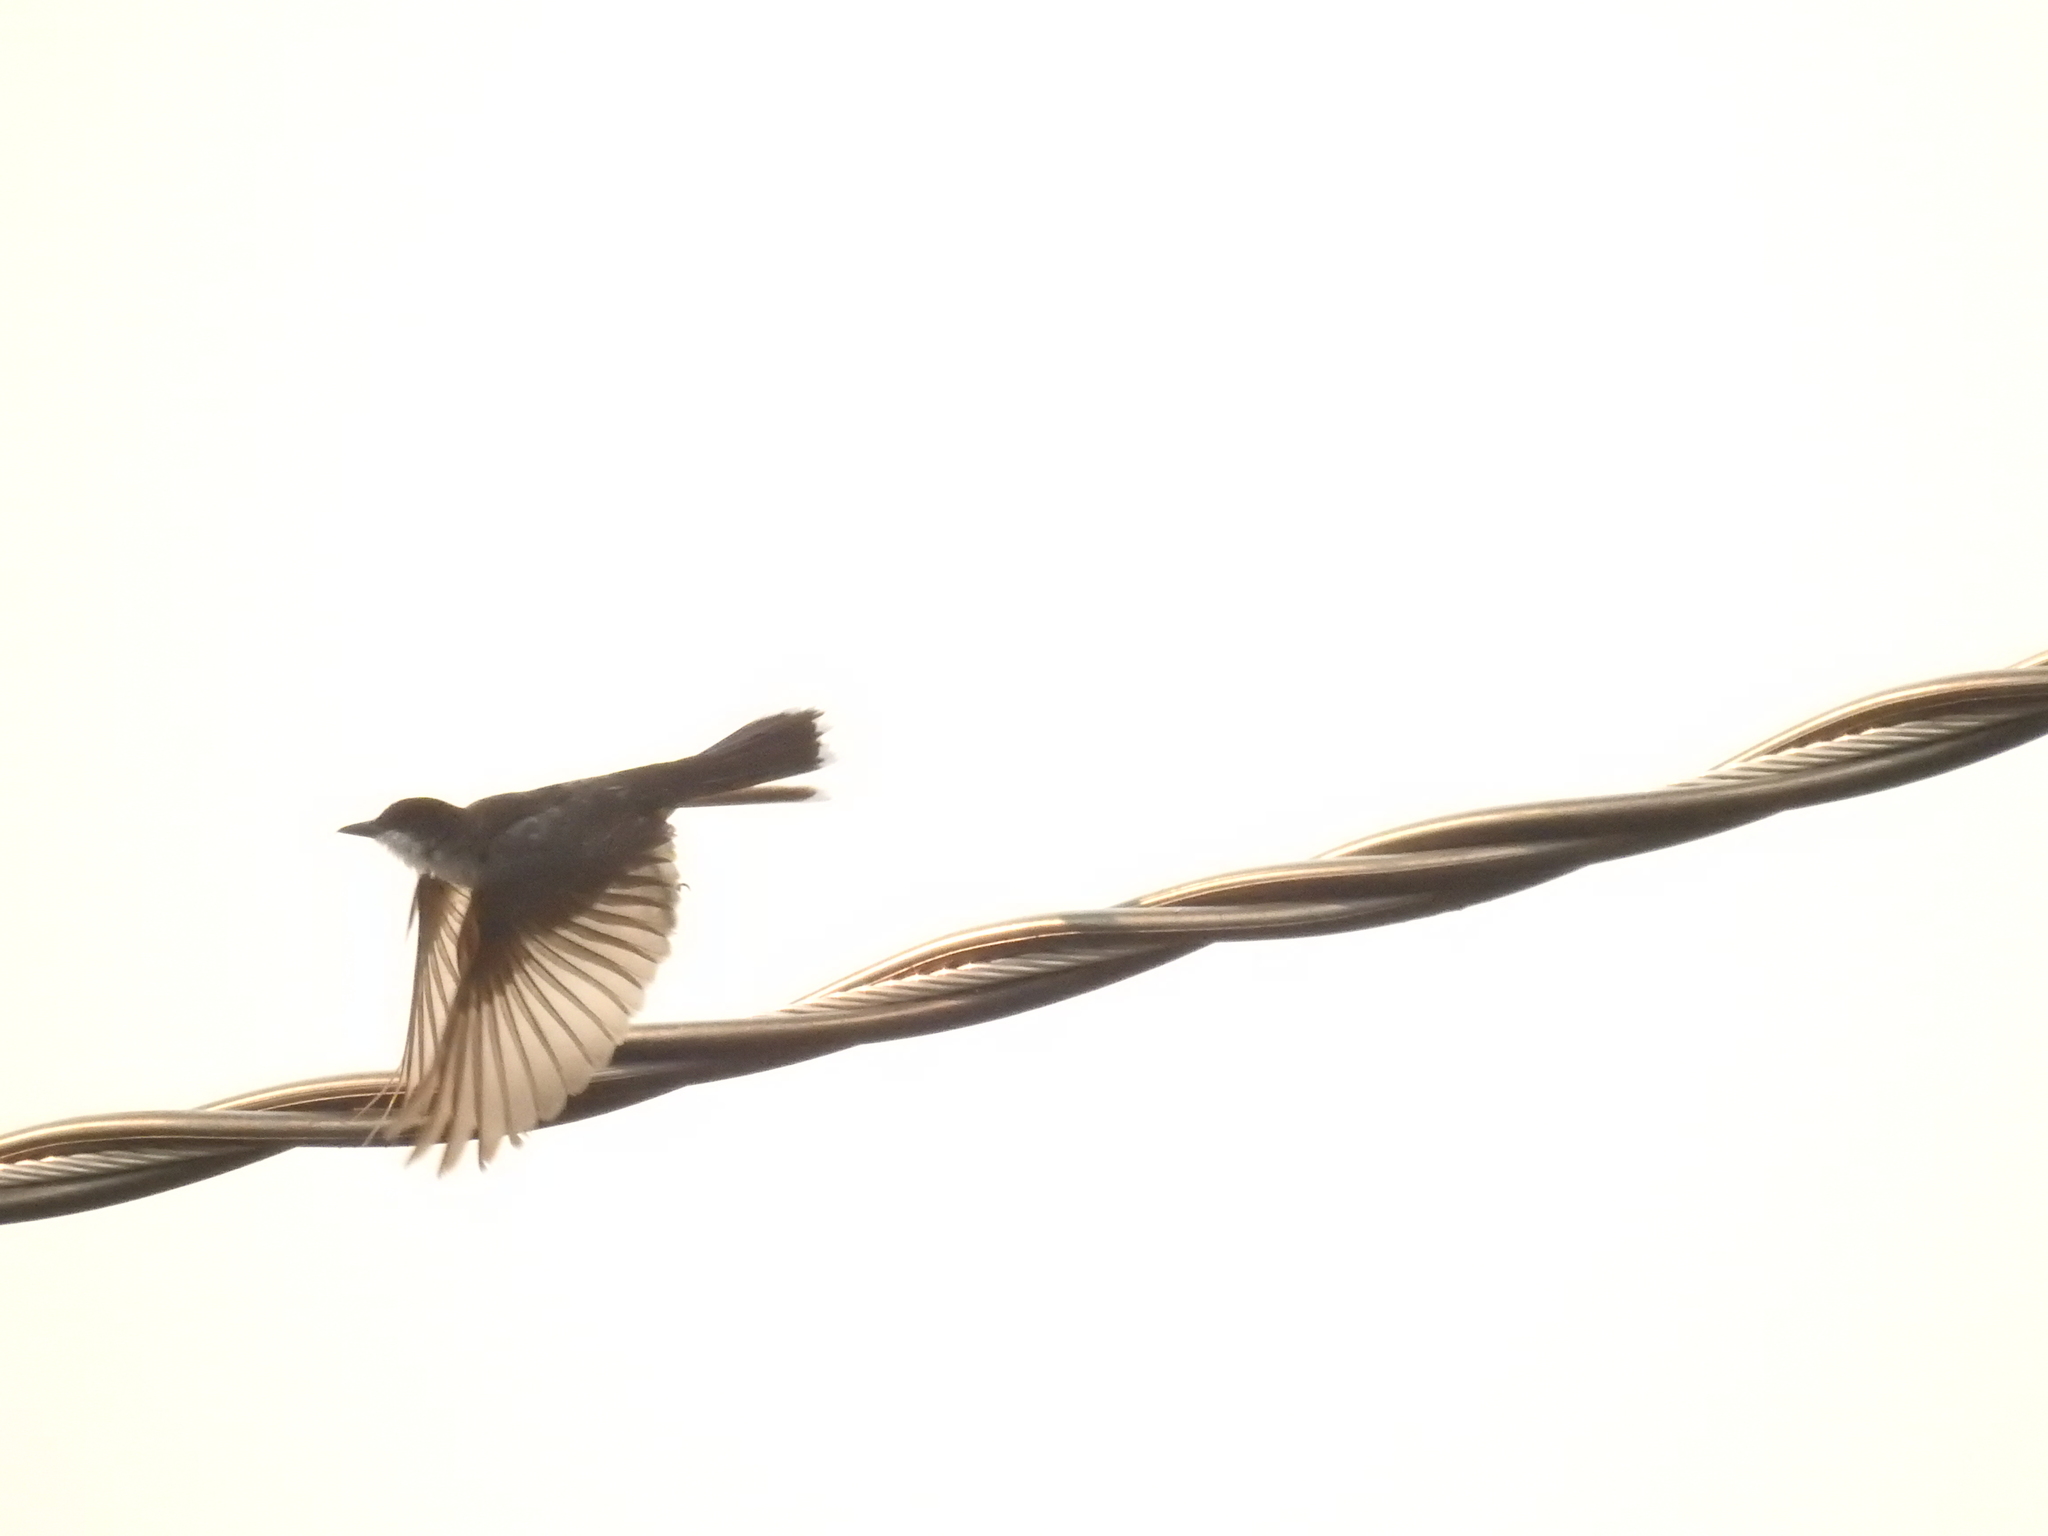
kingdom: Animalia
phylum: Chordata
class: Aves
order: Passeriformes
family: Tyrannidae
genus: Tyrannus
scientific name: Tyrannus tyrannus
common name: Eastern kingbird
